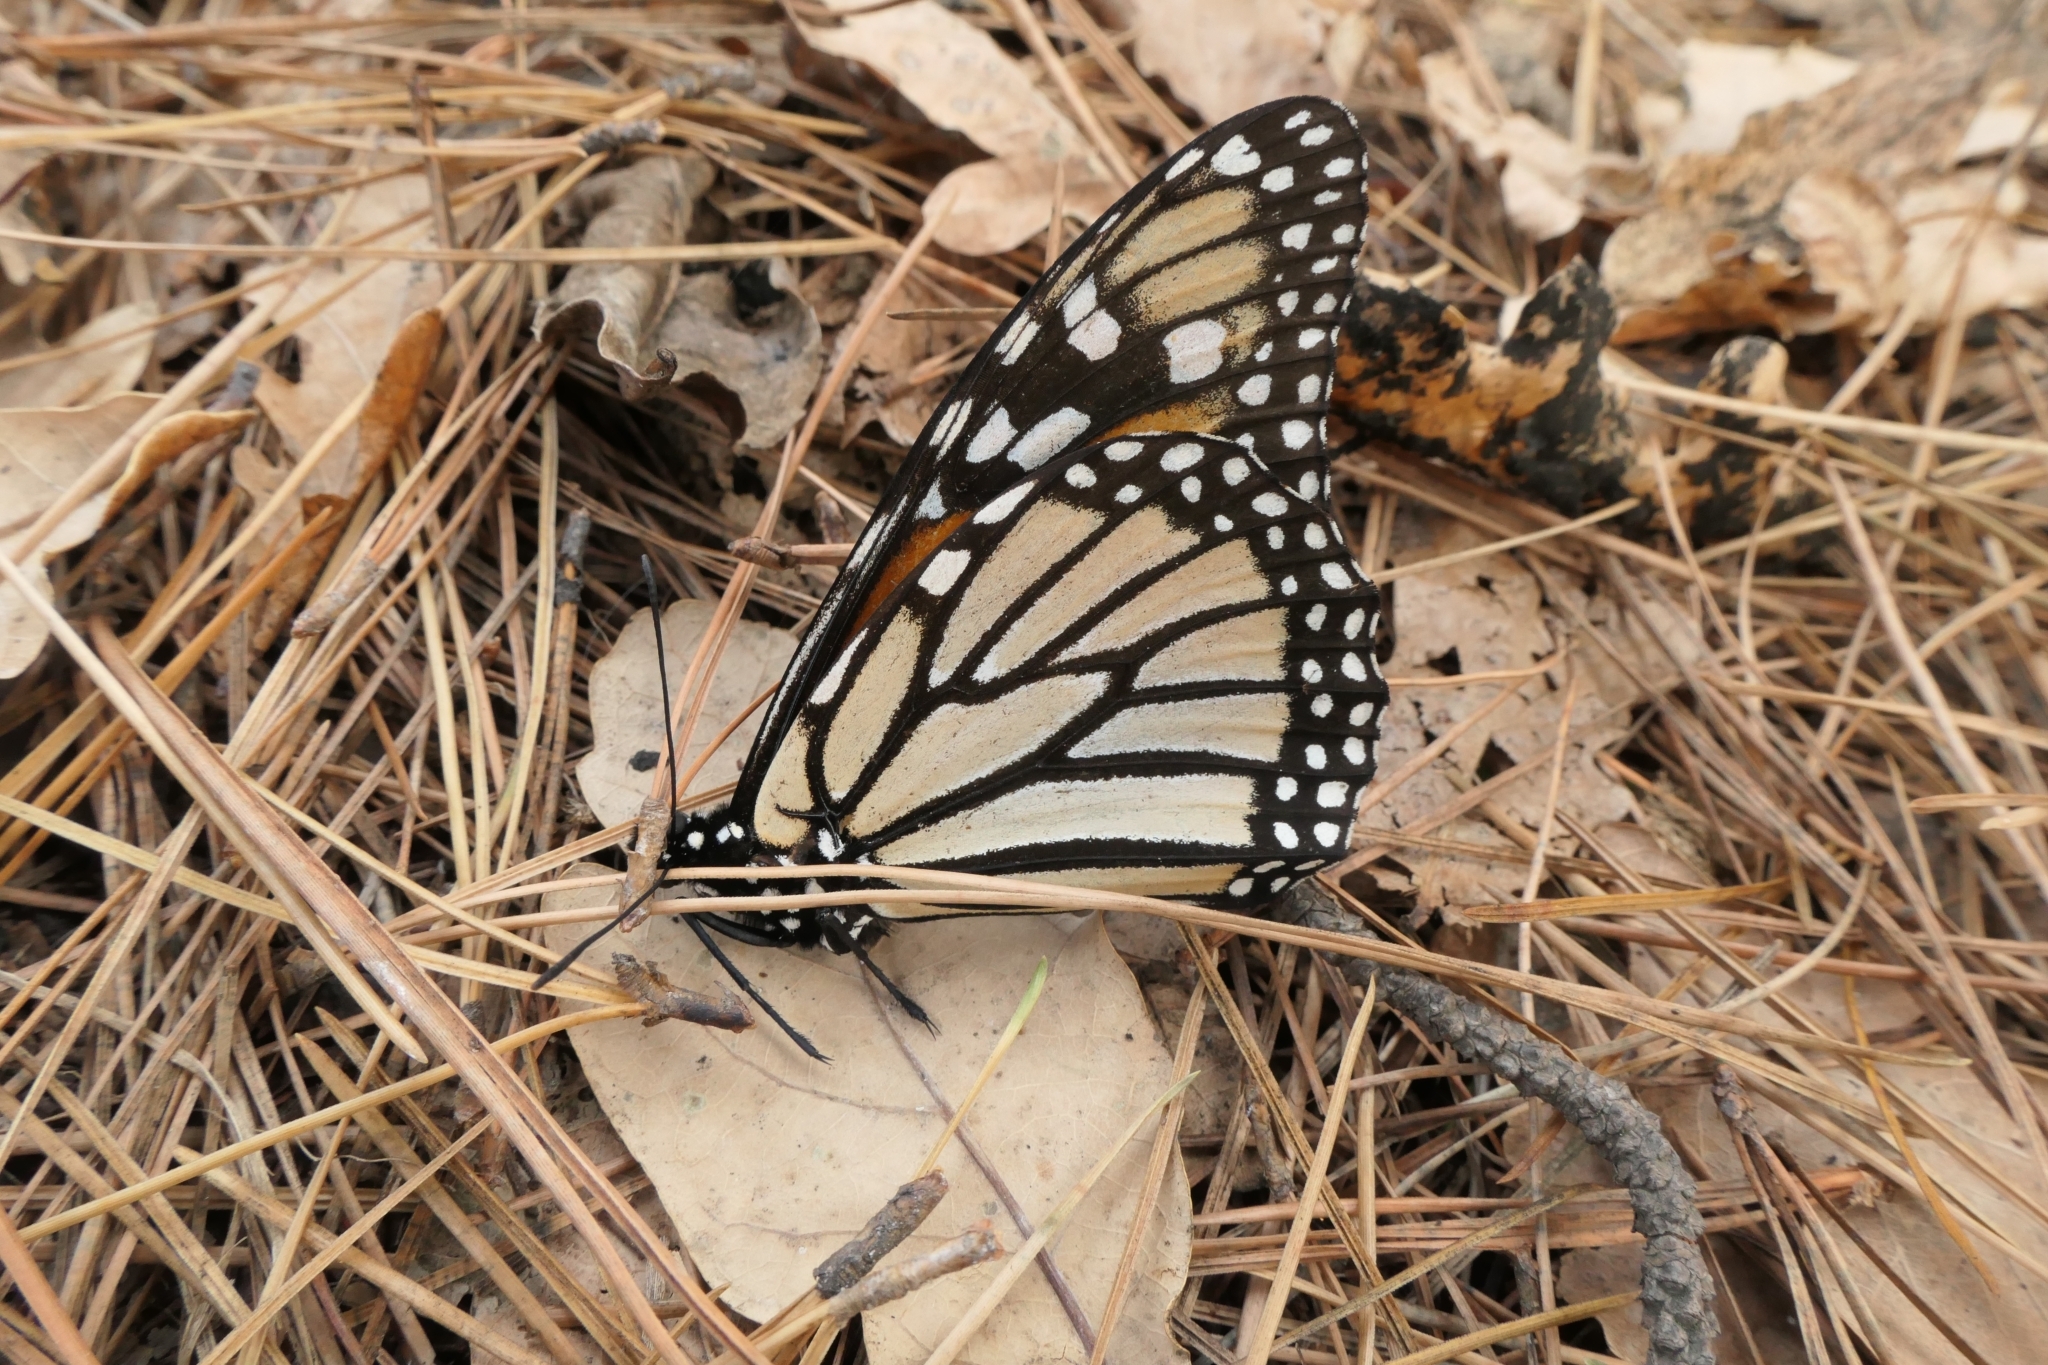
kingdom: Animalia
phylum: Arthropoda
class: Insecta
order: Lepidoptera
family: Nymphalidae
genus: Danaus
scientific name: Danaus plexippus
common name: Monarch
